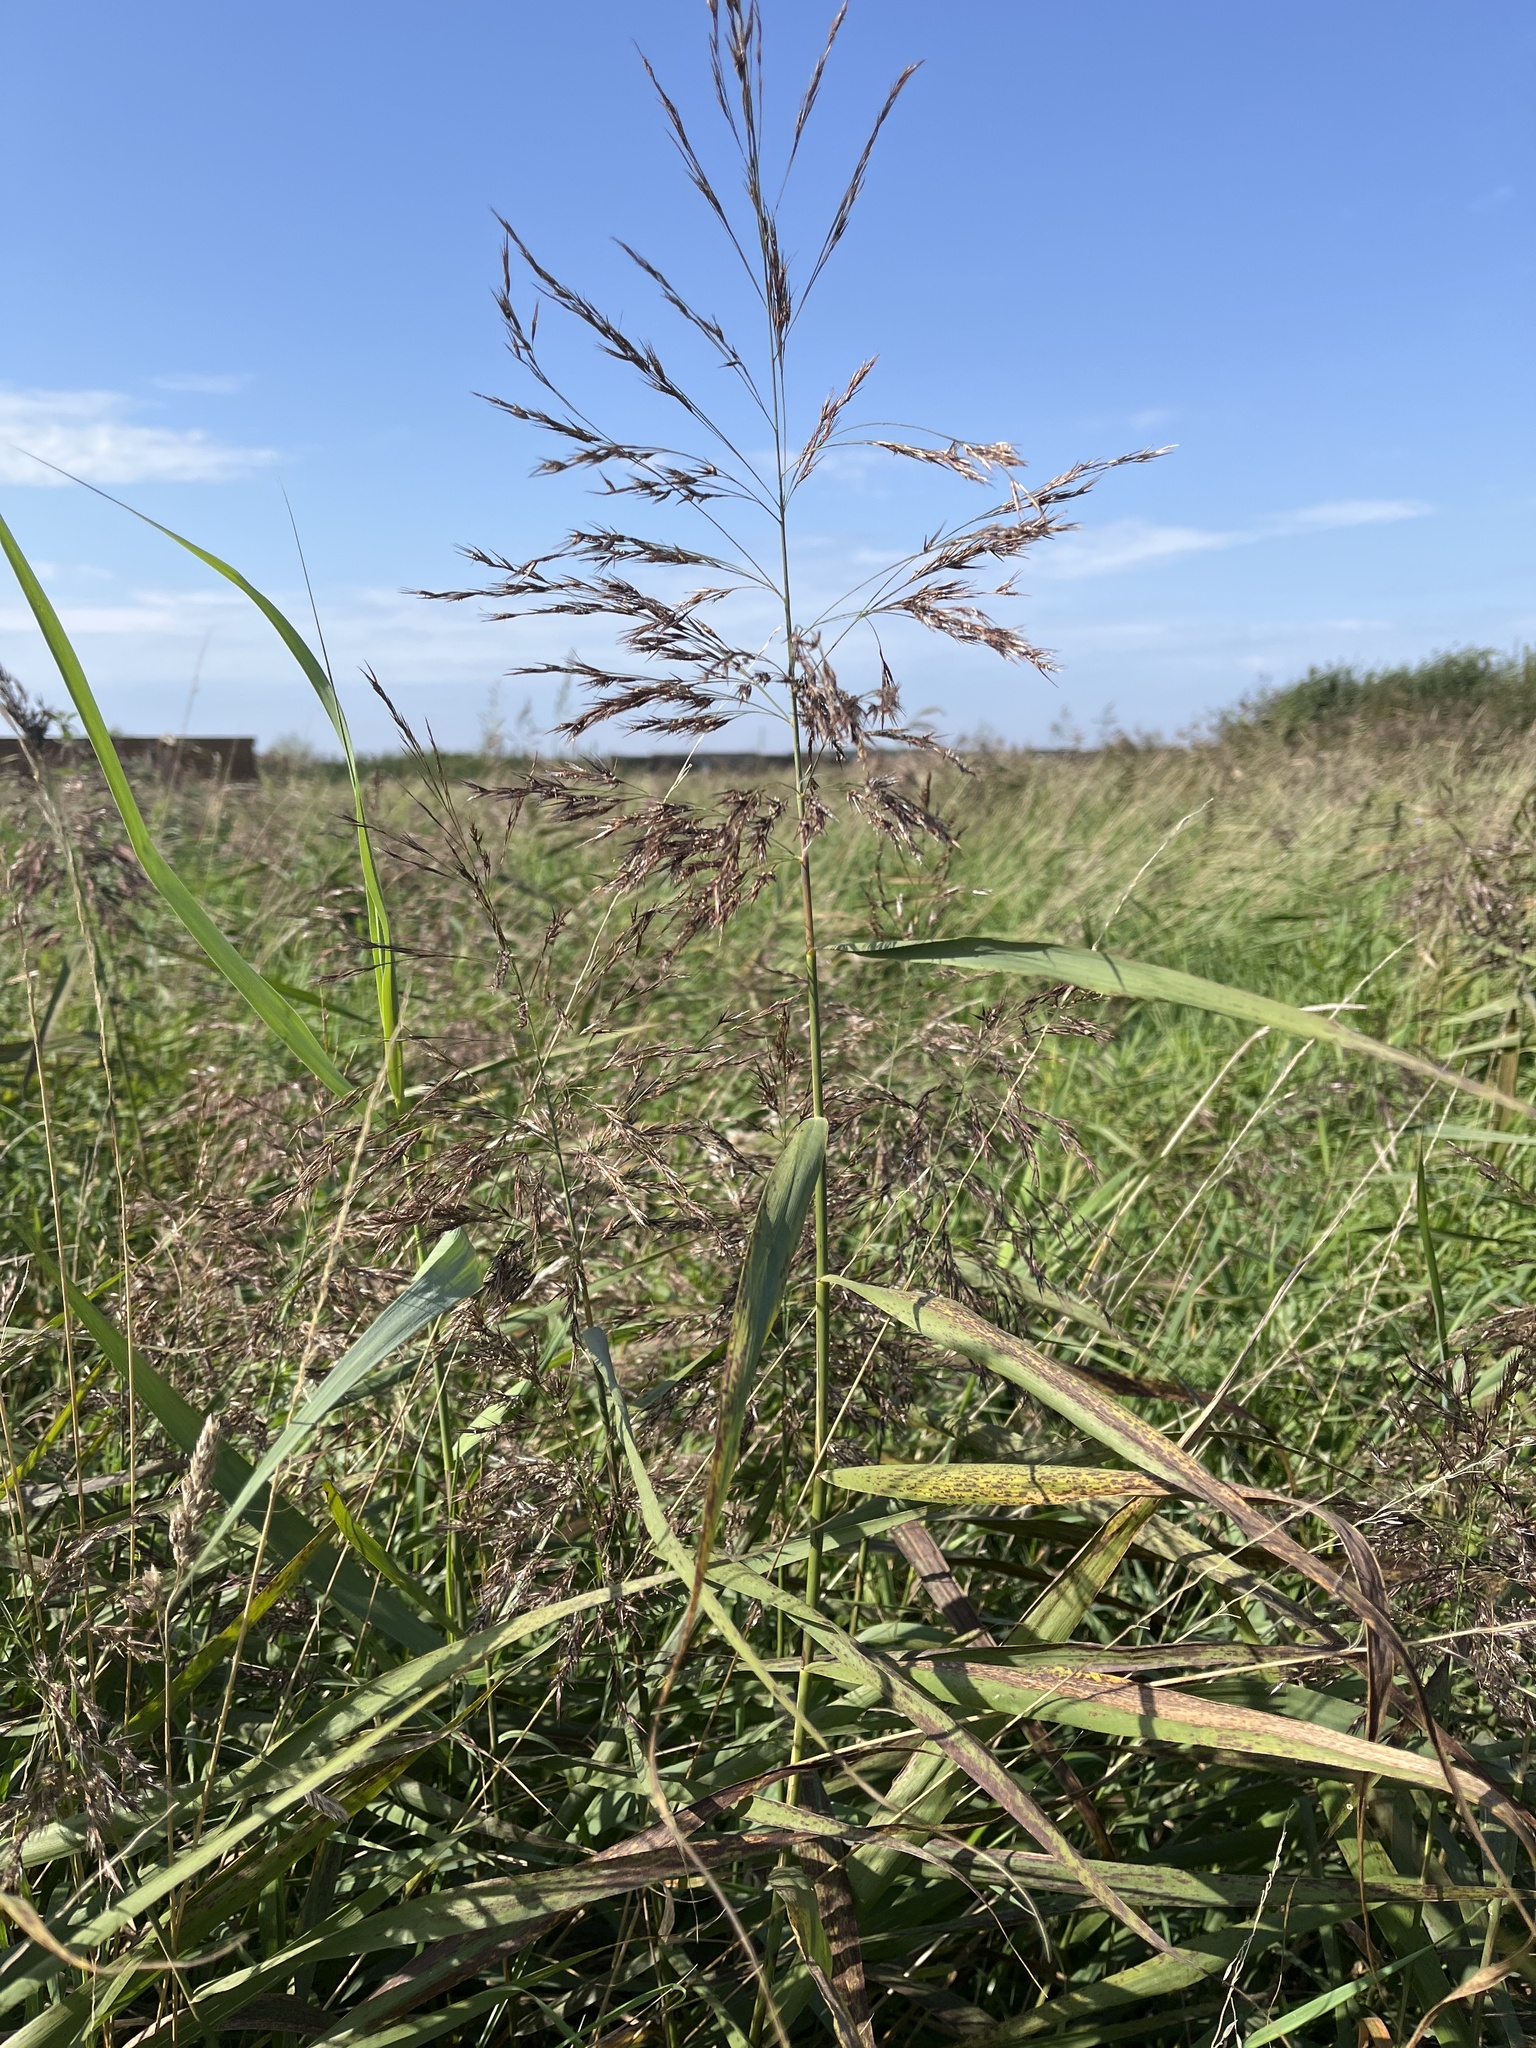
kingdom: Plantae
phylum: Tracheophyta
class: Liliopsida
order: Poales
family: Poaceae
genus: Phragmites
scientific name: Phragmites australis
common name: Common reed
